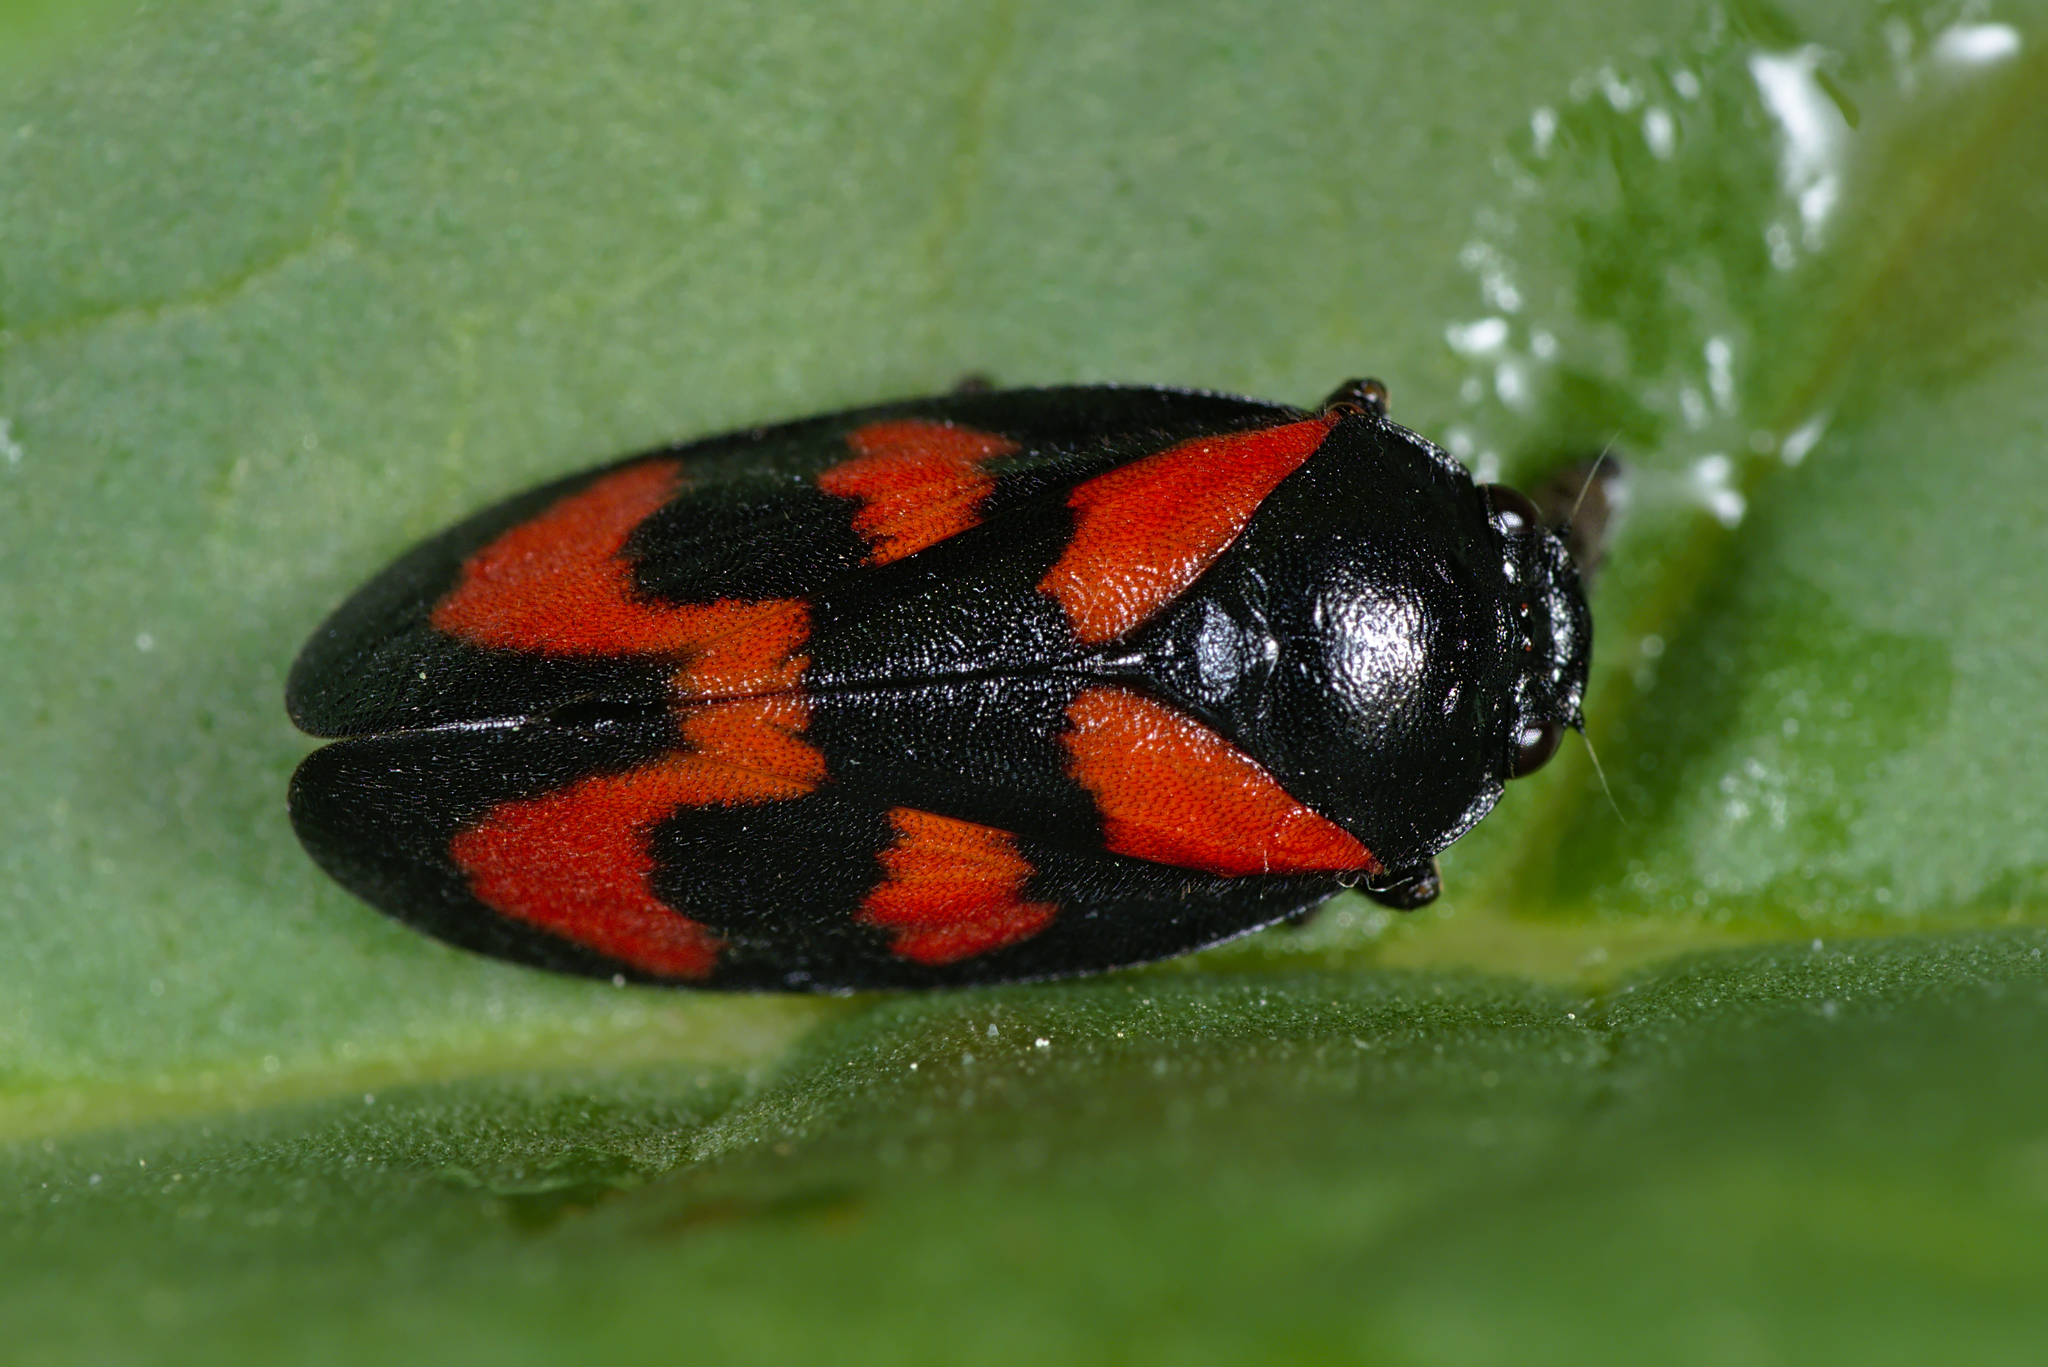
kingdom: Animalia
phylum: Arthropoda
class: Insecta
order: Hemiptera
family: Cercopidae
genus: Cercopis
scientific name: Cercopis vulnerata
